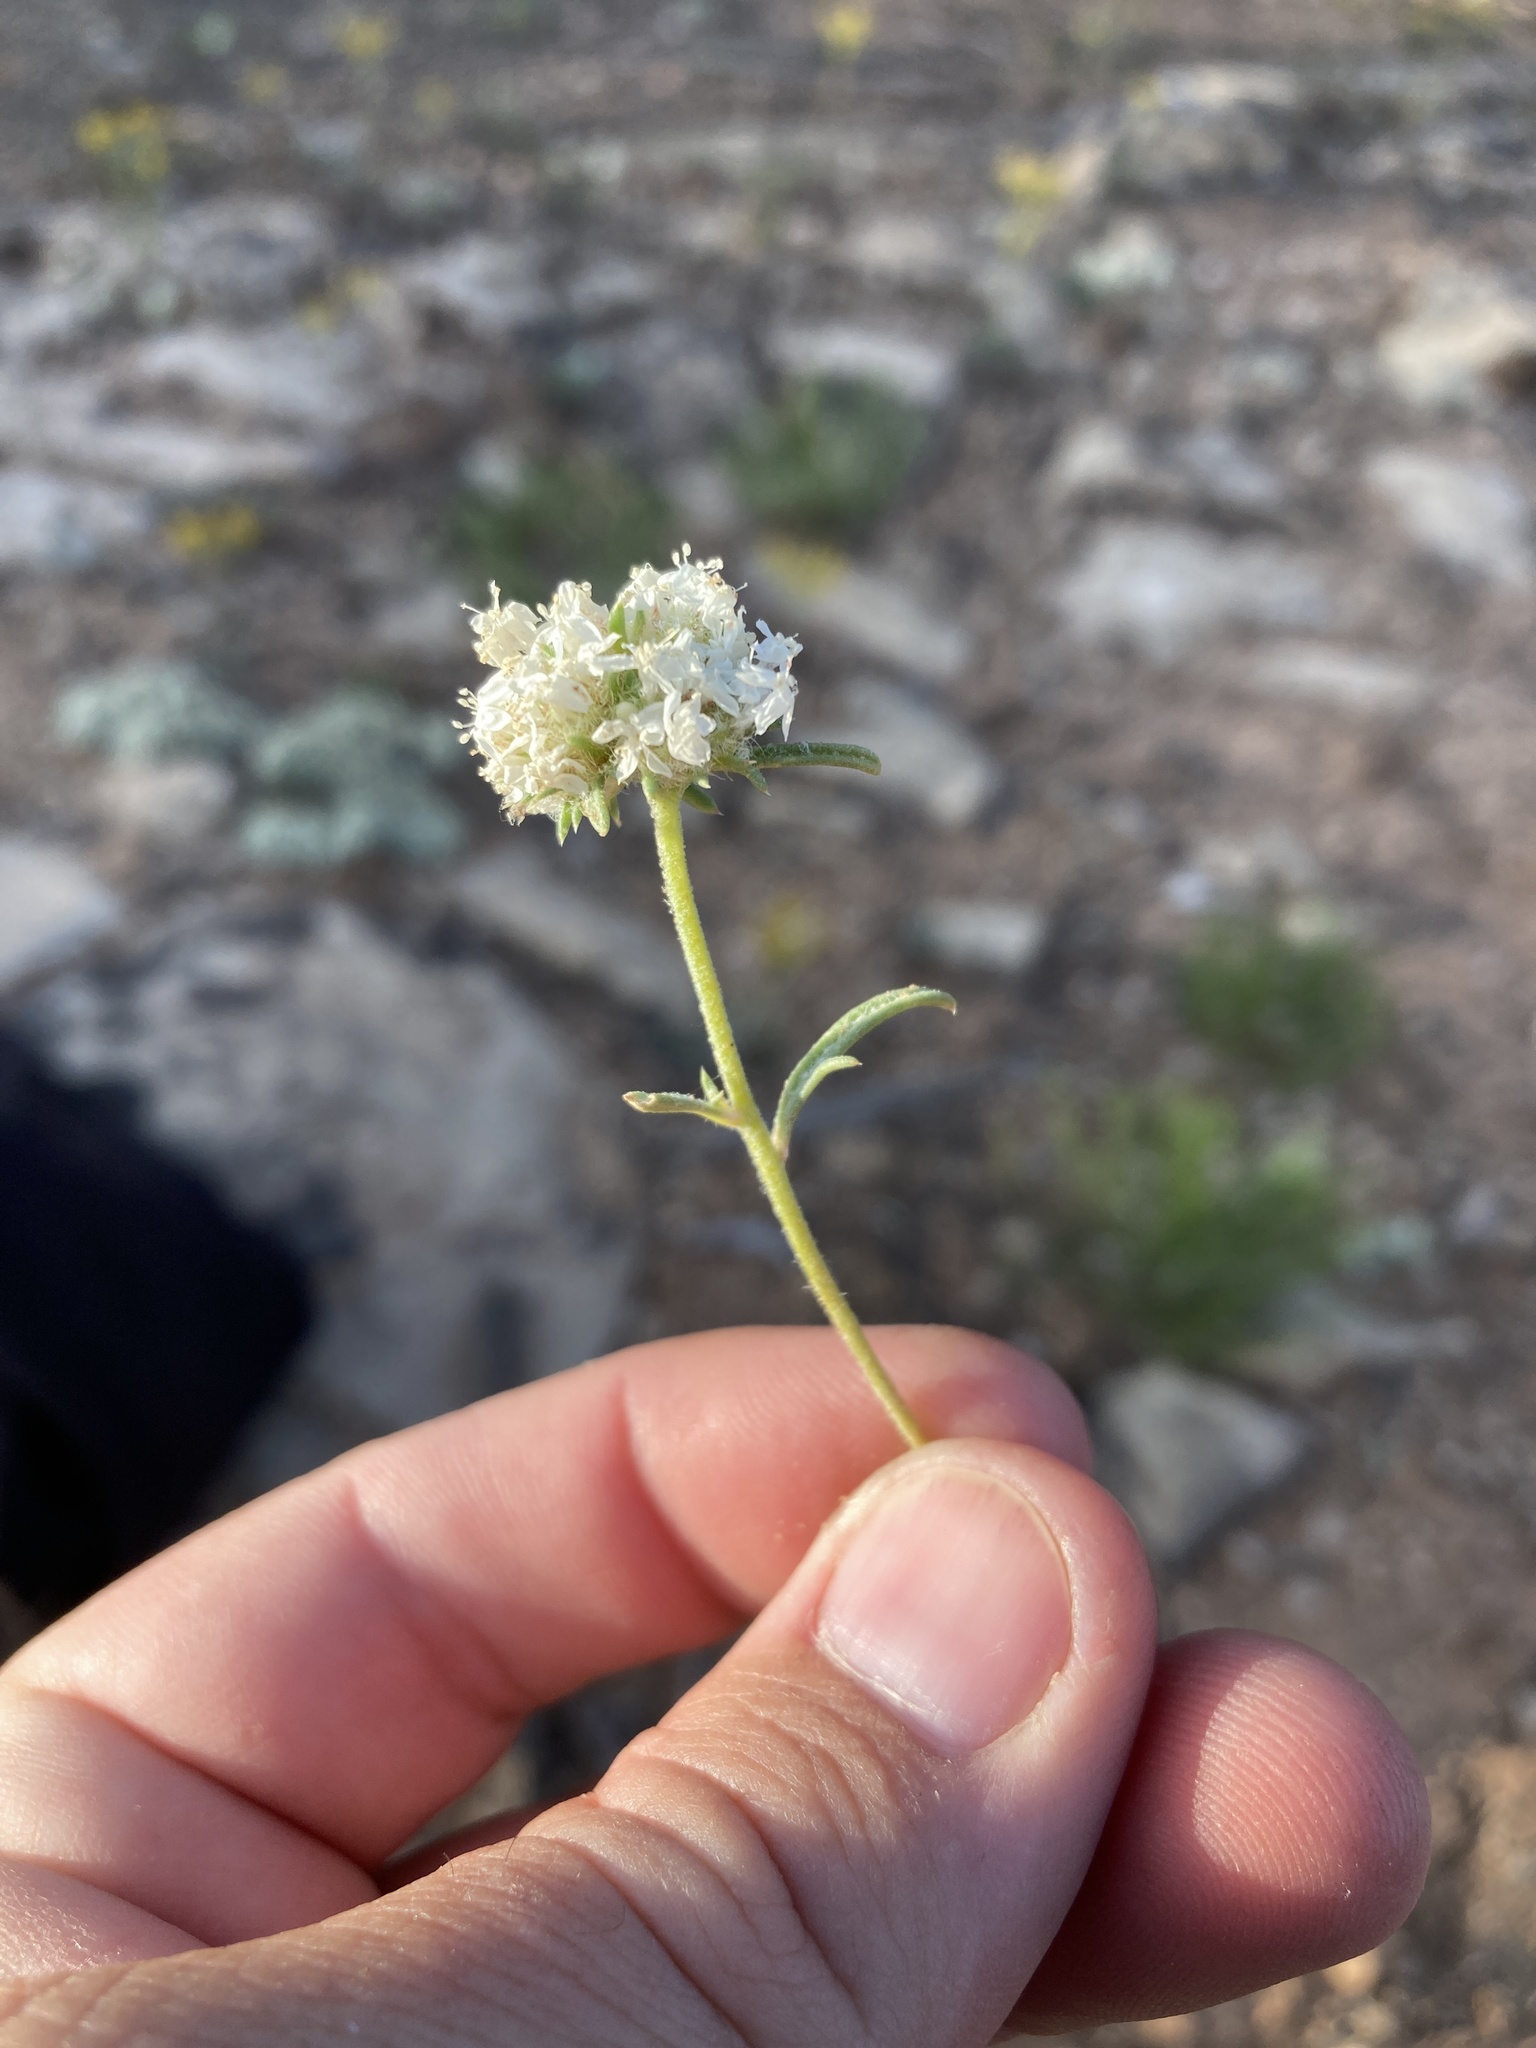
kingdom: Plantae
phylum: Tracheophyta
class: Magnoliopsida
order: Ericales
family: Polemoniaceae
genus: Ipomopsis
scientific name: Ipomopsis congesta
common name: Ball-head gilia
